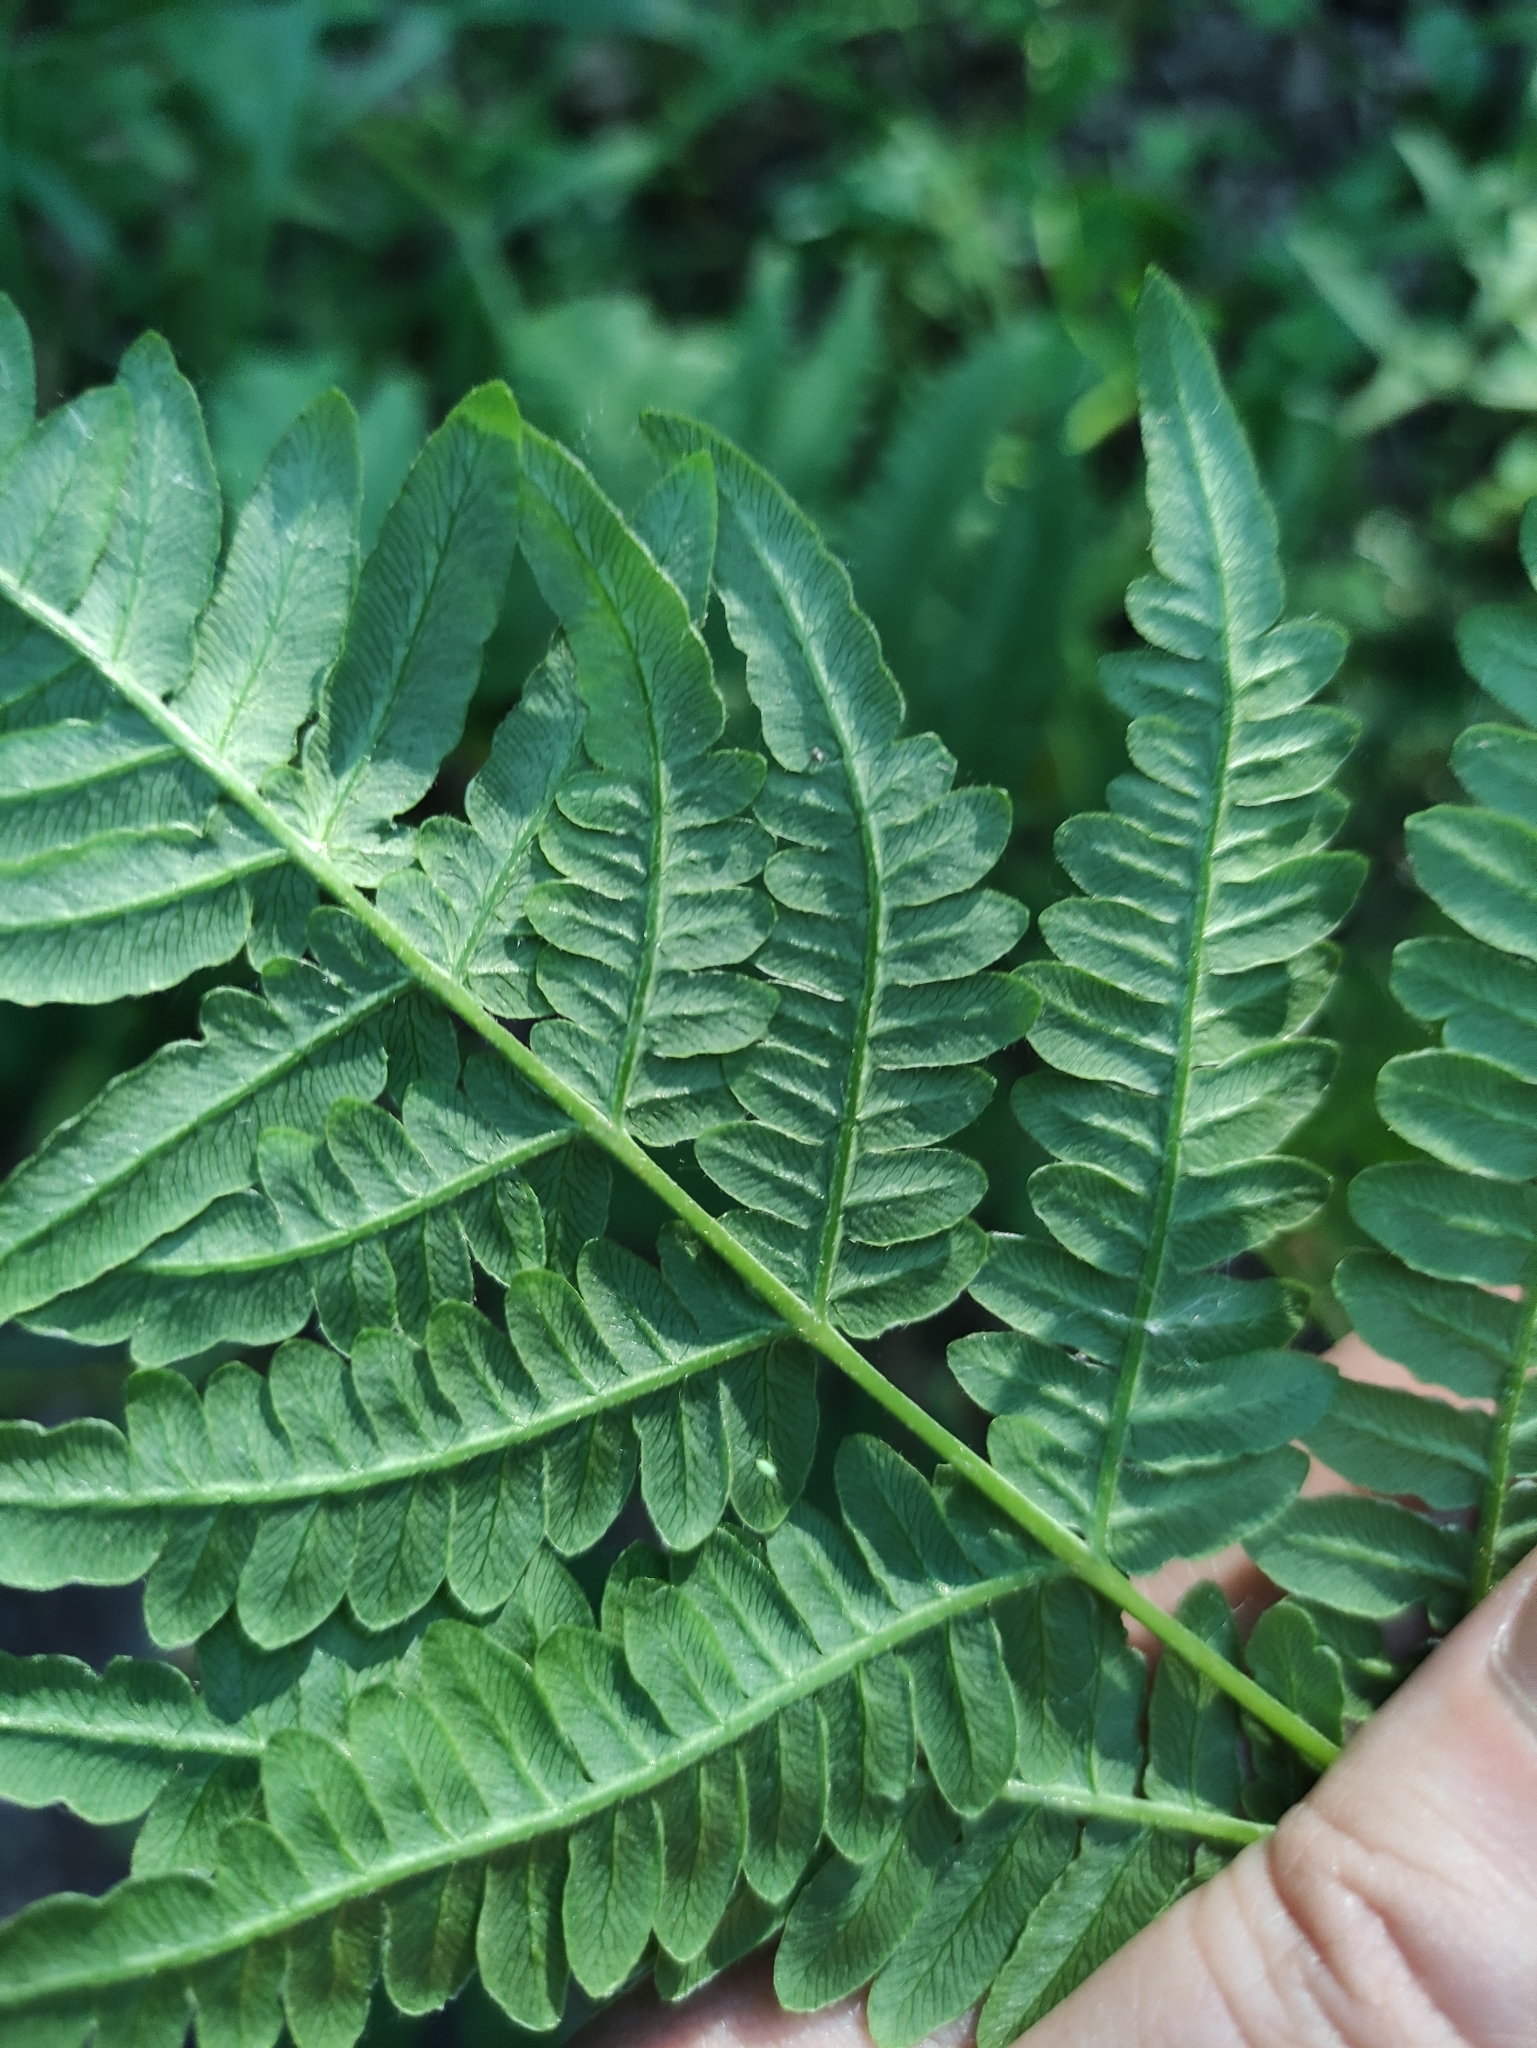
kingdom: Plantae
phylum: Tracheophyta
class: Polypodiopsida
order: Polypodiales
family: Dennstaedtiaceae
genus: Pteridium
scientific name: Pteridium aquilinum
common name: Bracken
